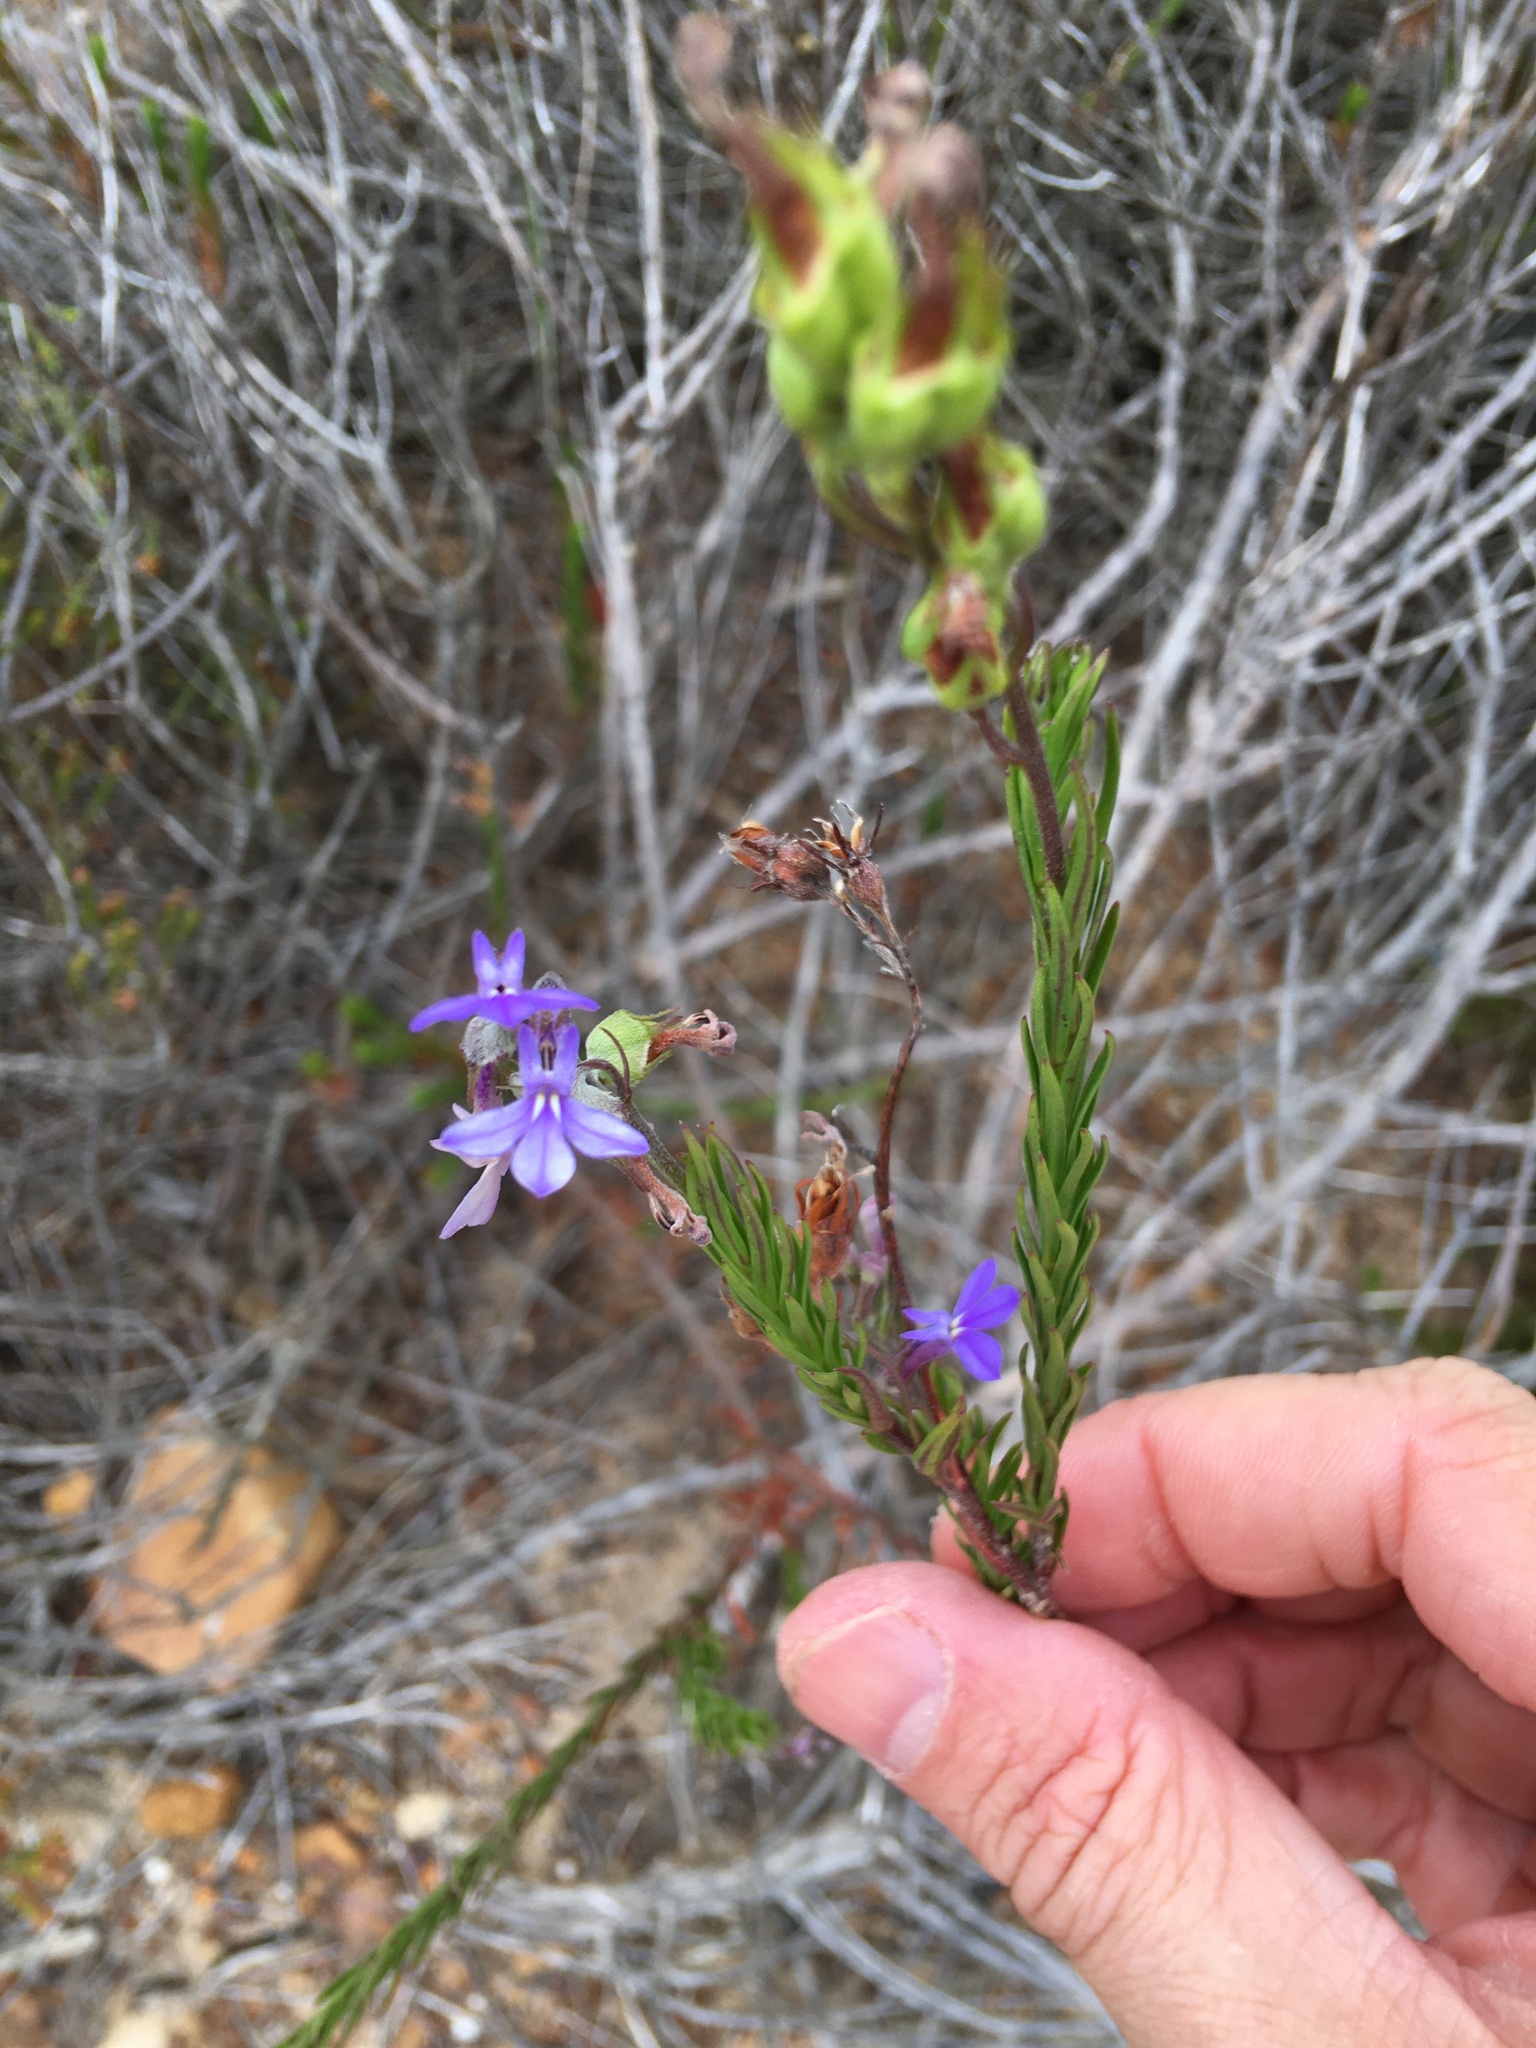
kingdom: Plantae
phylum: Tracheophyta
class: Magnoliopsida
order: Asterales
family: Campanulaceae
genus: Lobelia
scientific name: Lobelia pinifolia
